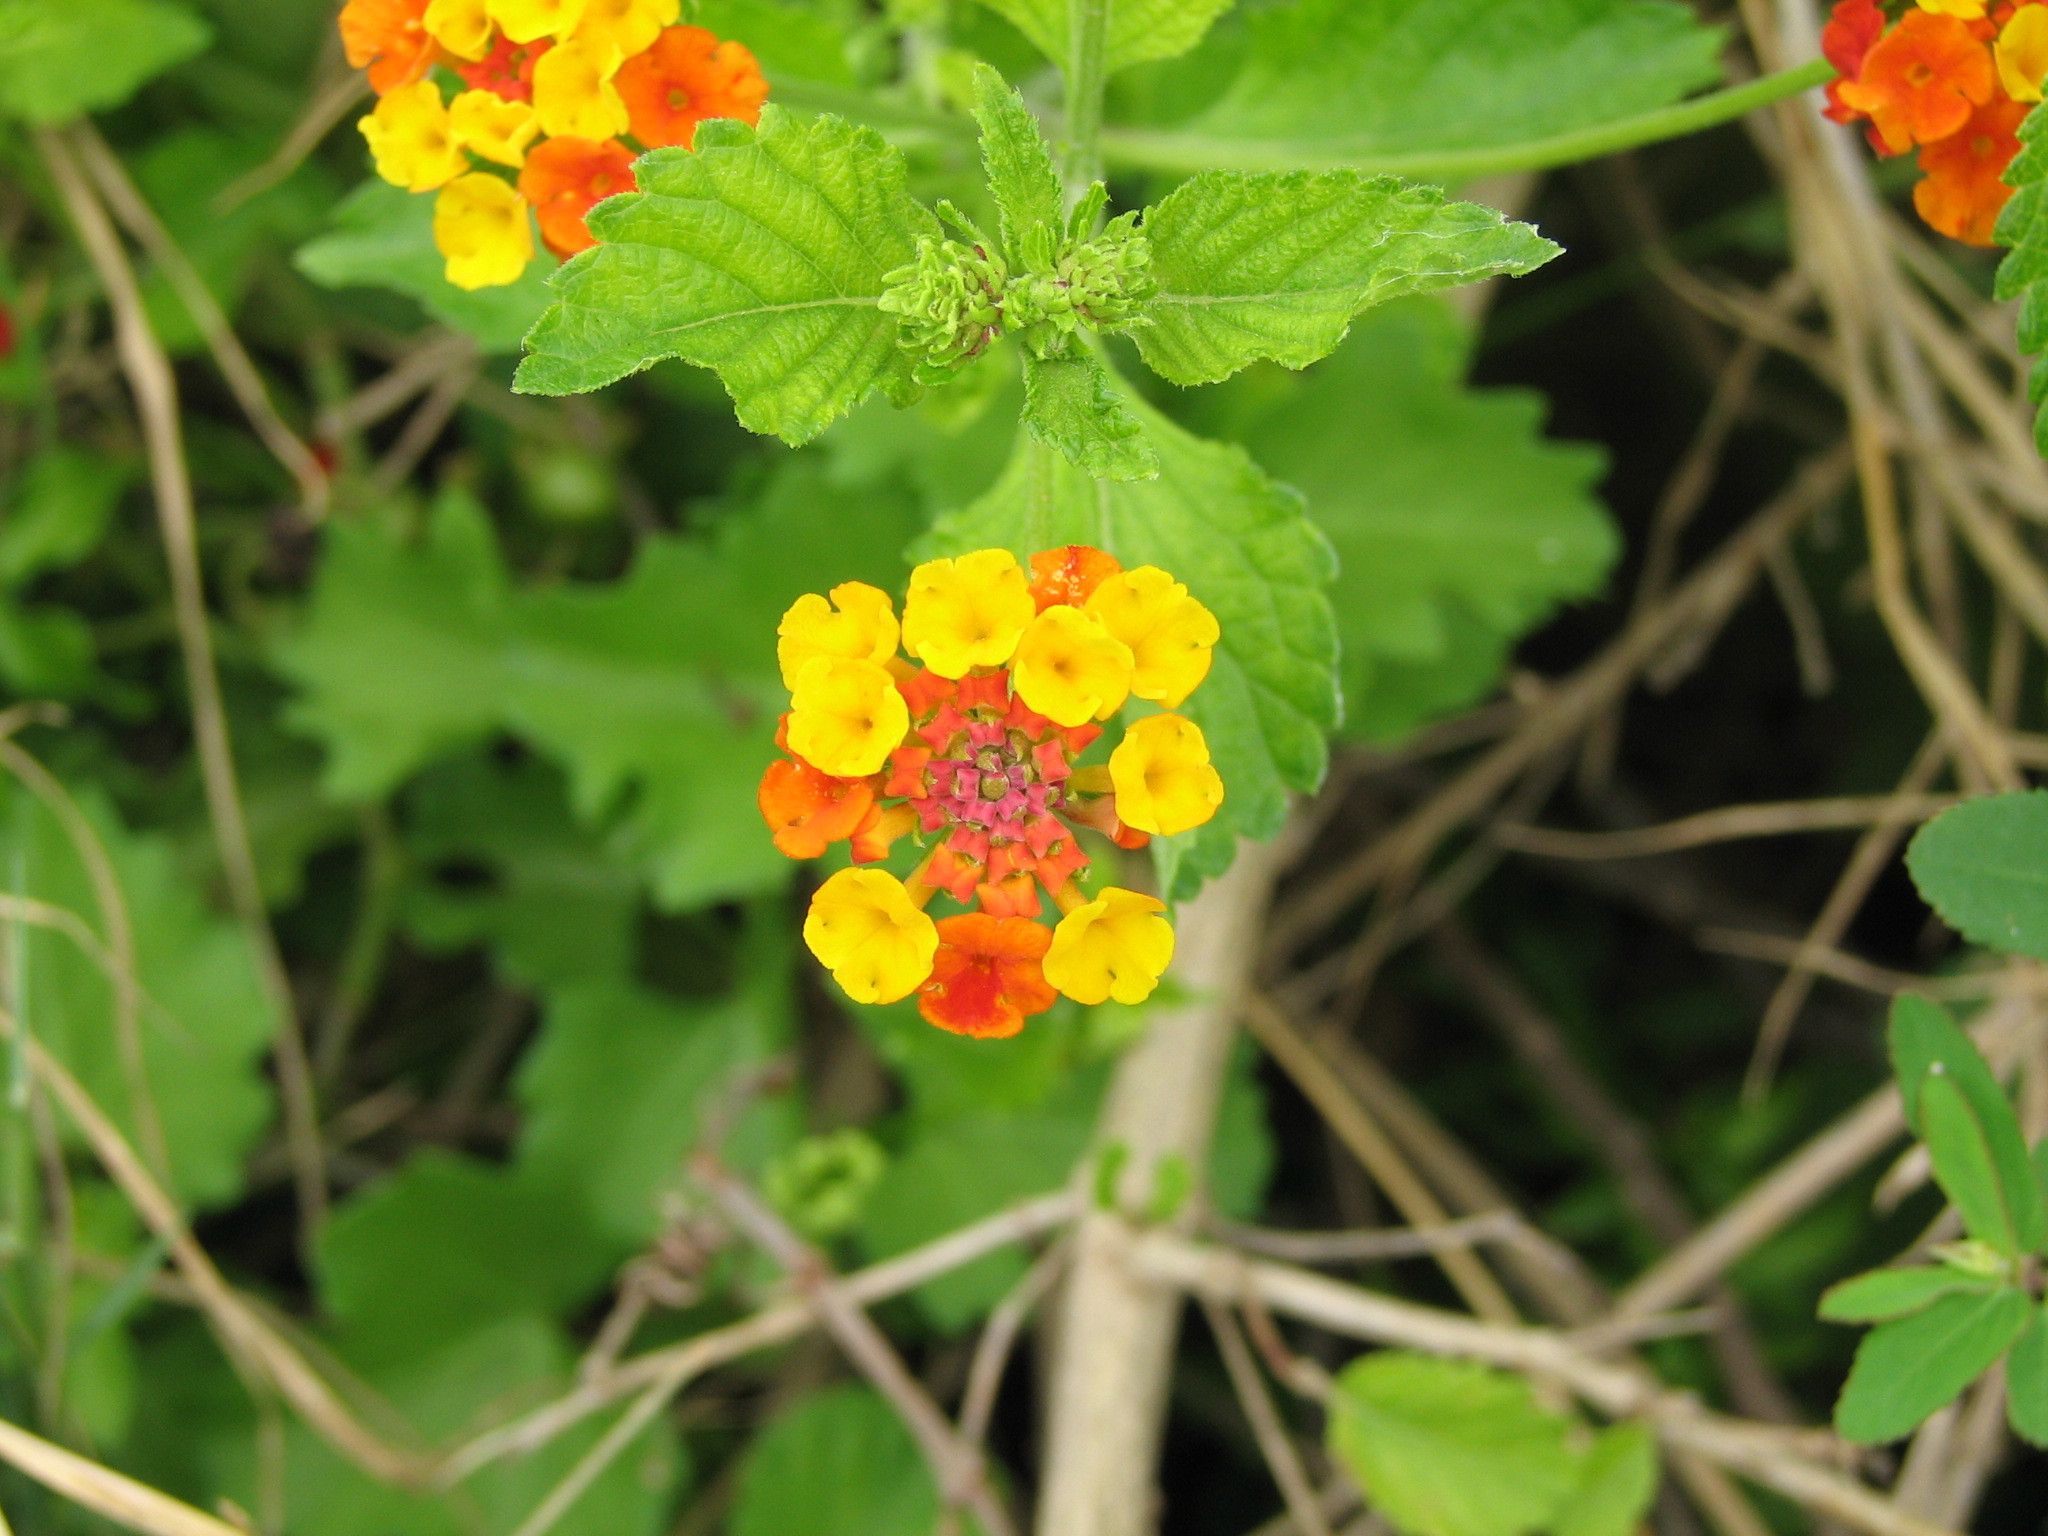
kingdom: Plantae
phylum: Tracheophyta
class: Magnoliopsida
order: Lamiales
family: Verbenaceae
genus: Lantana
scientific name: Lantana camara
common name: Lantana
